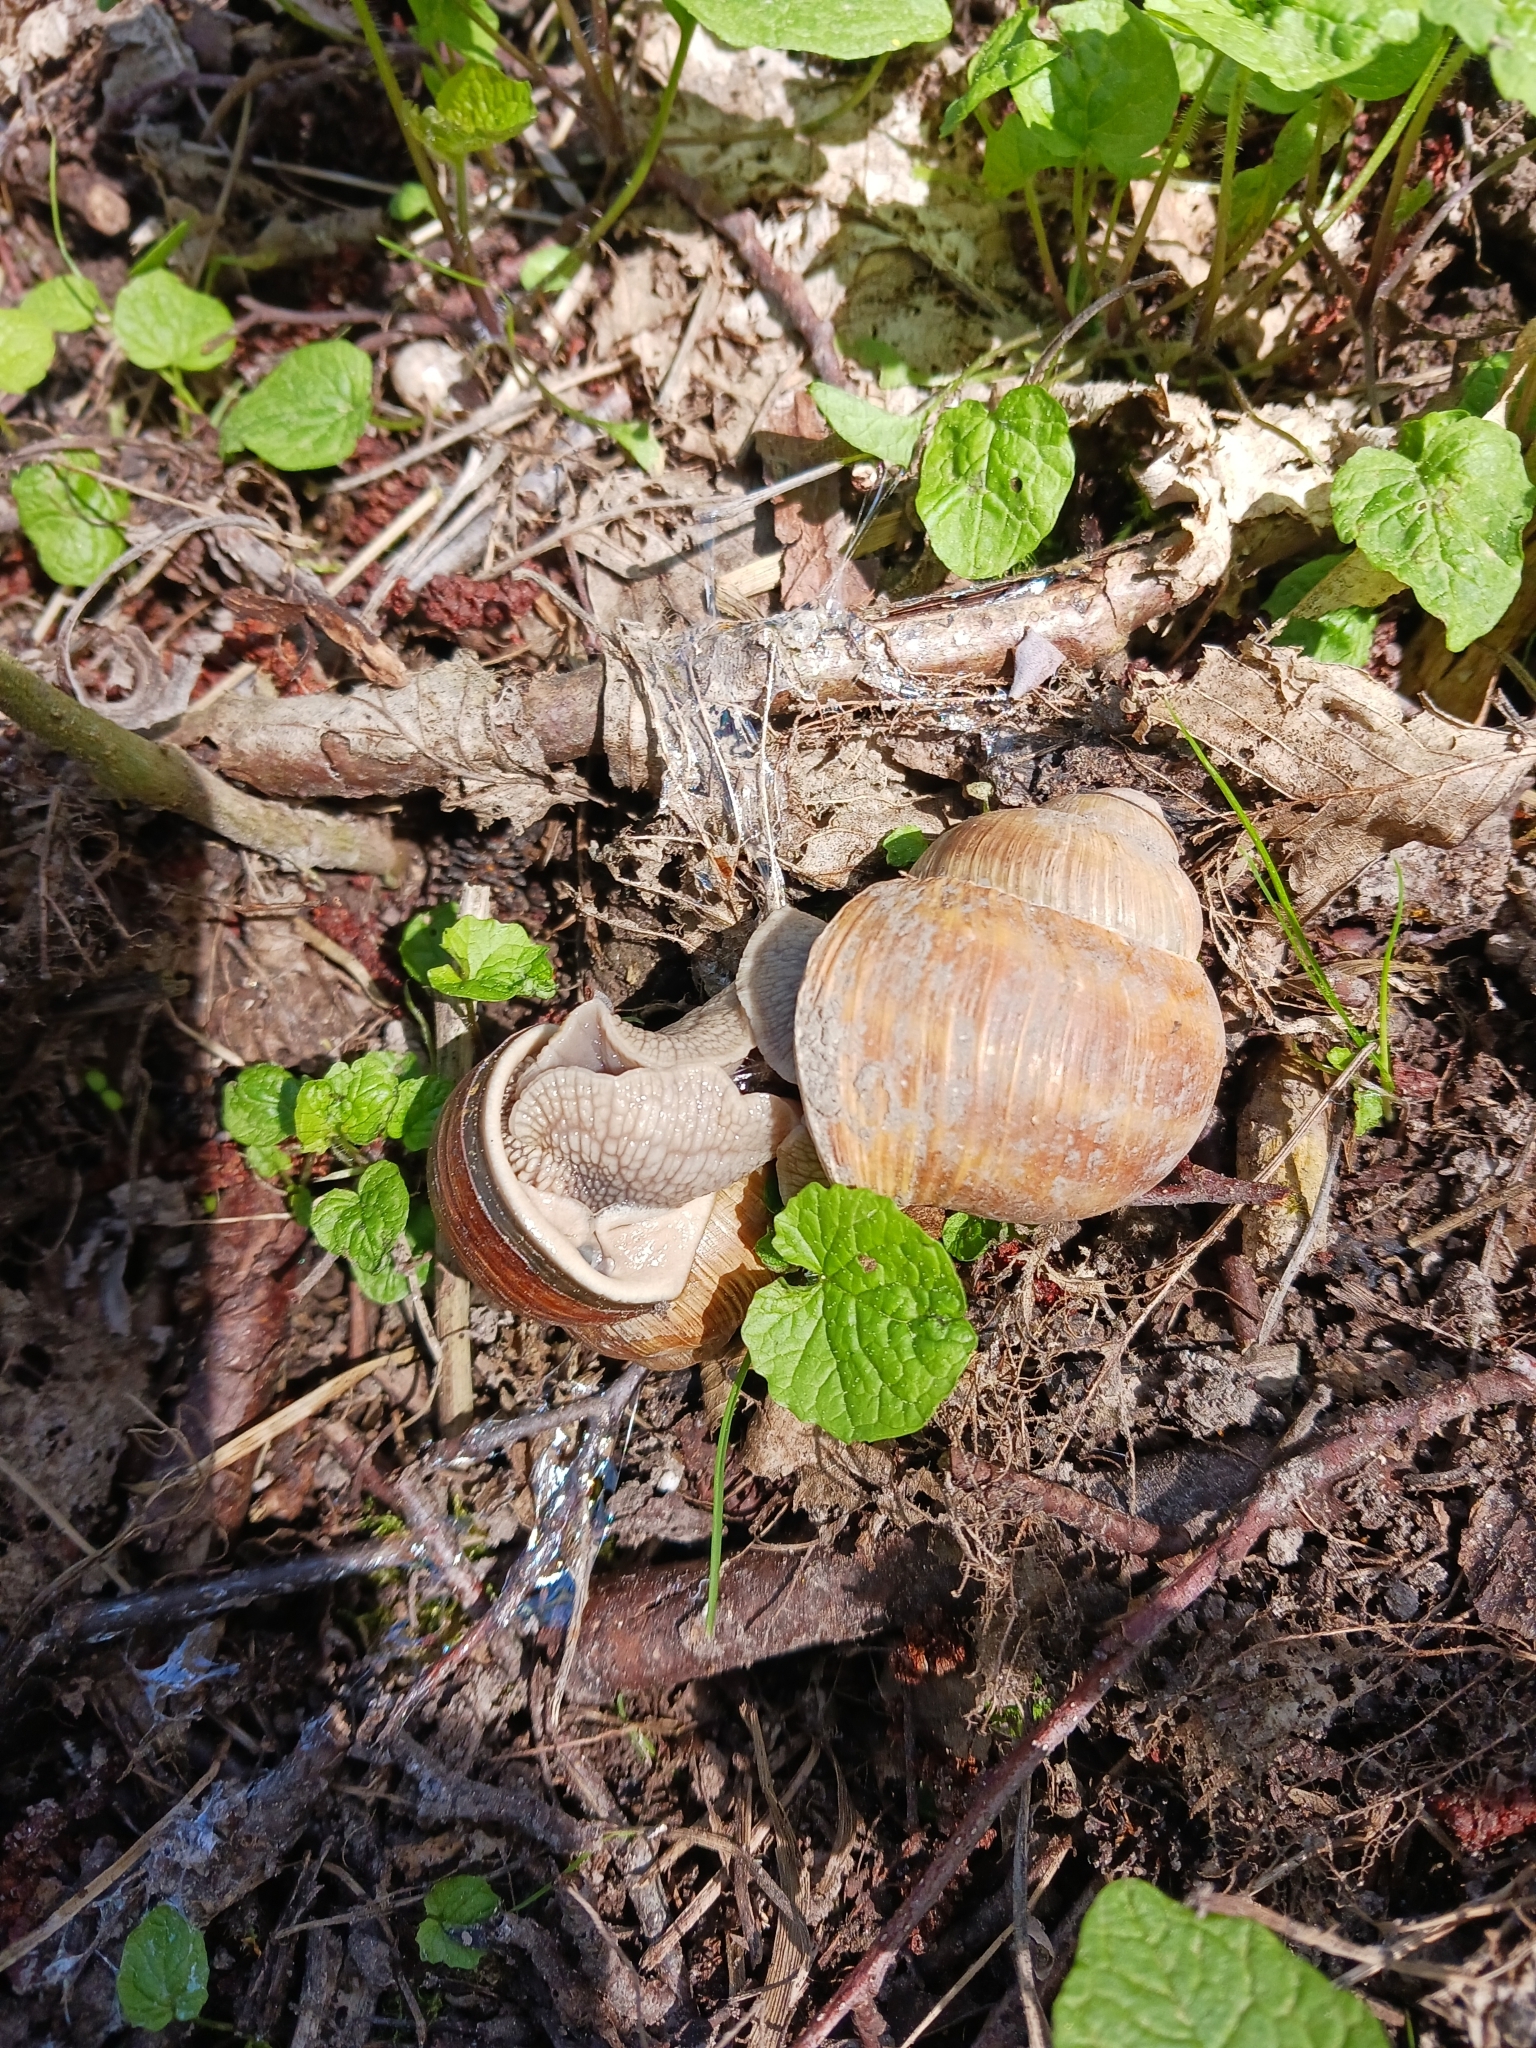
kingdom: Animalia
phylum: Mollusca
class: Gastropoda
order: Stylommatophora
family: Helicidae
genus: Helix
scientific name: Helix pomatia
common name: Roman snail
